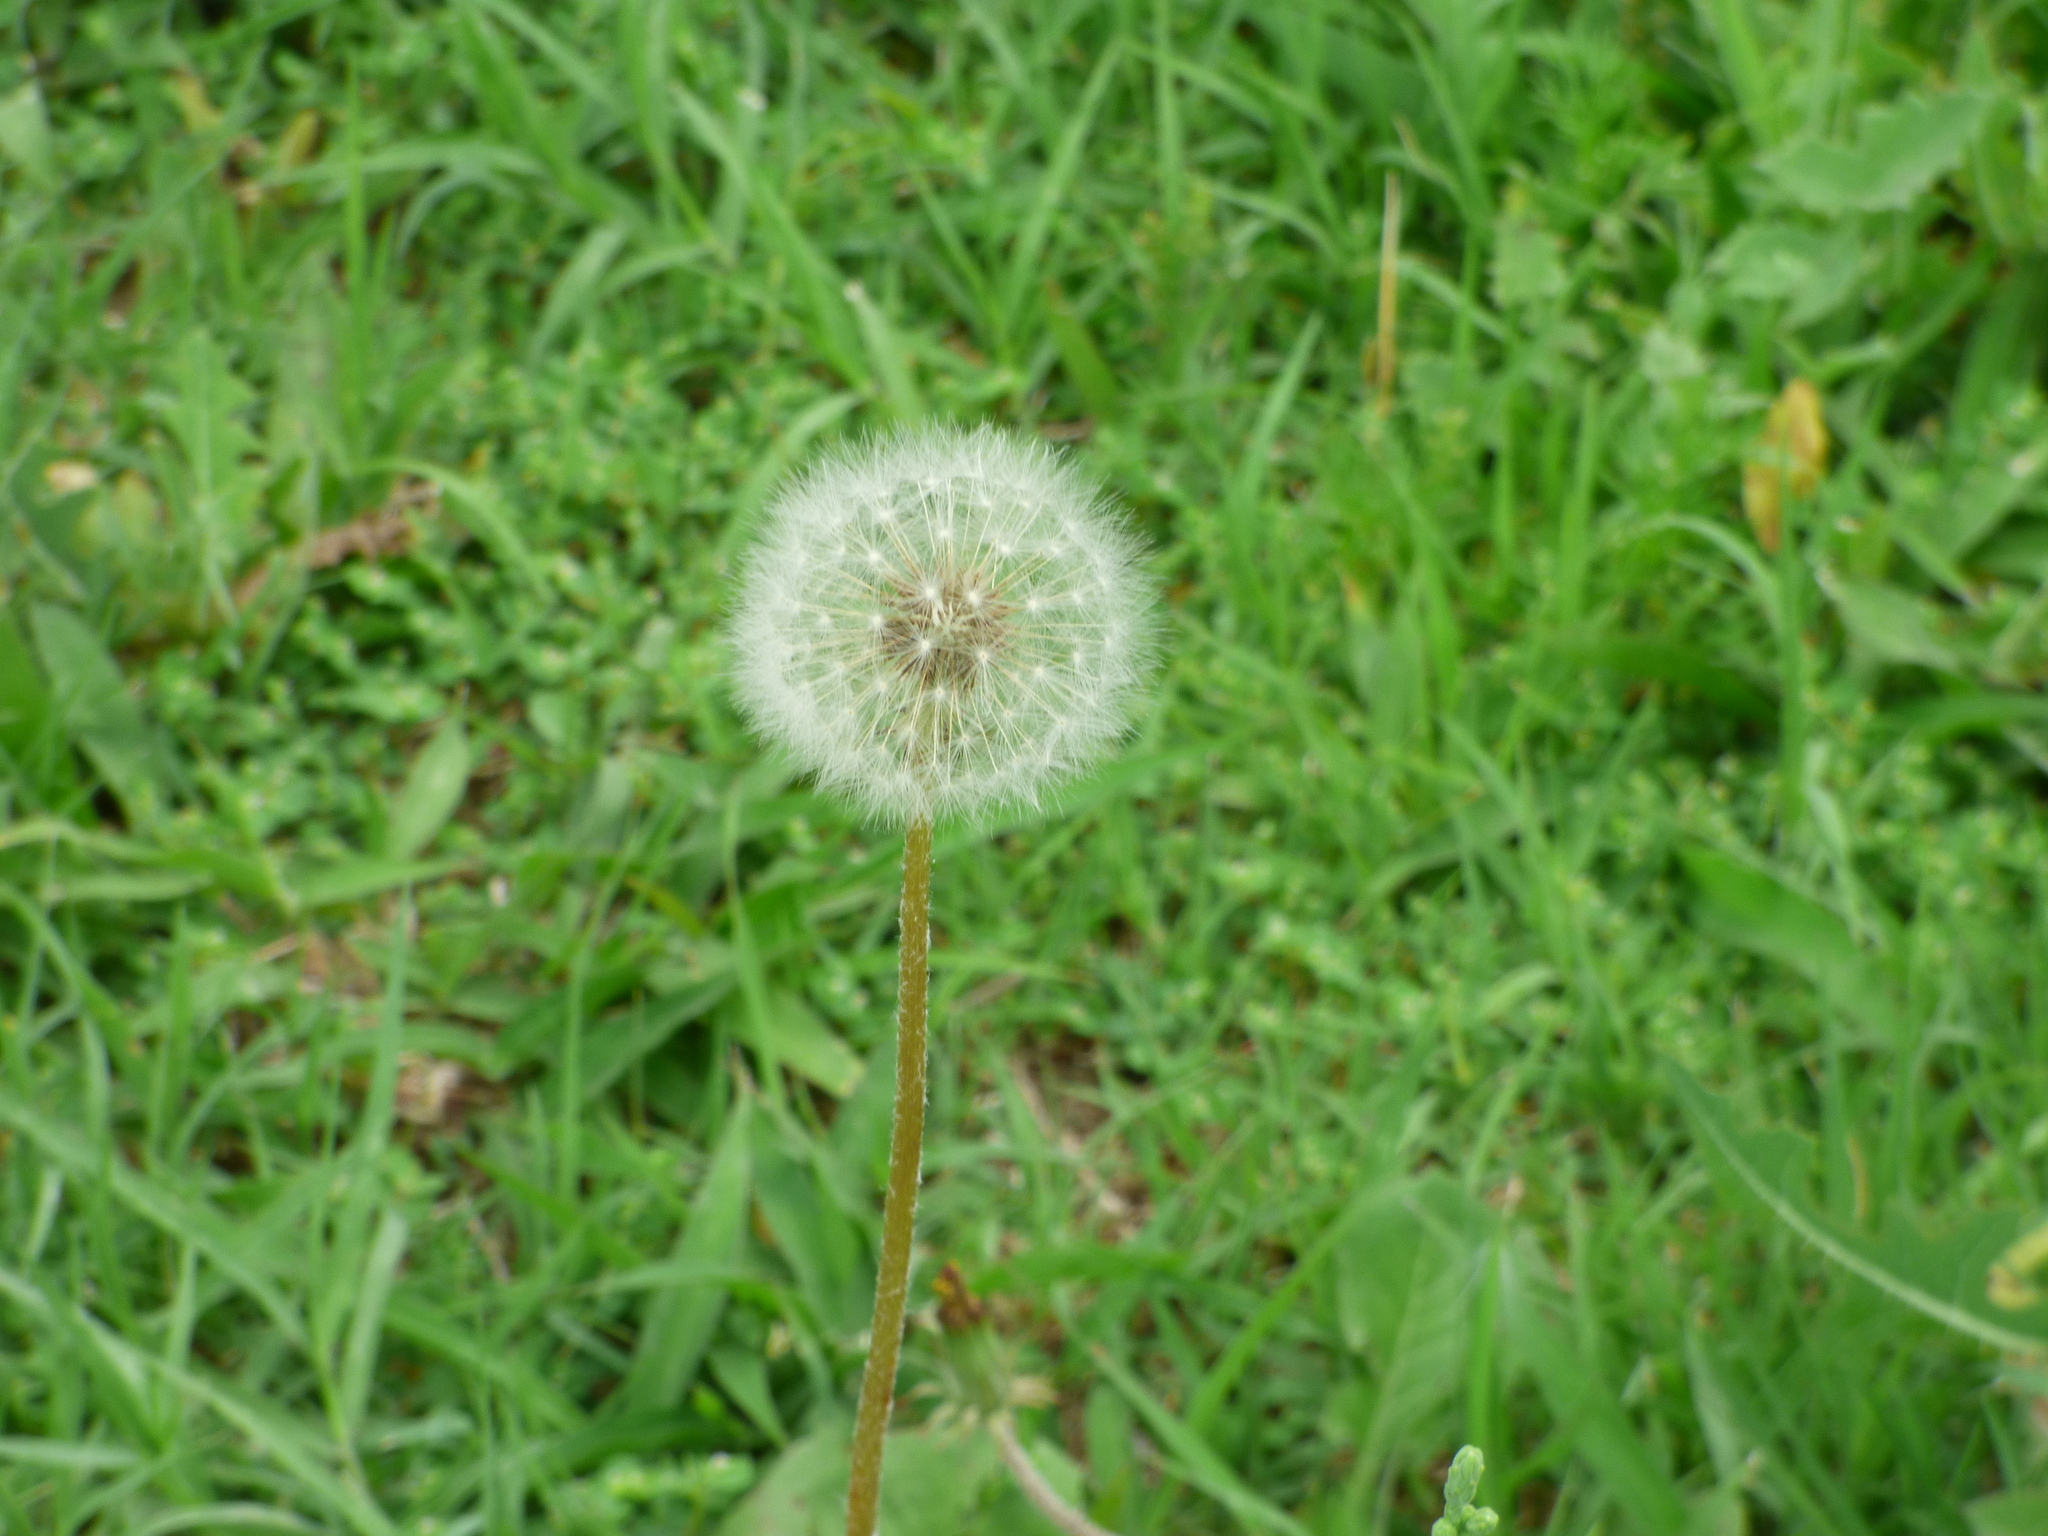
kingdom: Plantae
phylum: Tracheophyta
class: Magnoliopsida
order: Asterales
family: Asteraceae
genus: Taraxacum
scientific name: Taraxacum officinale
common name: Common dandelion
